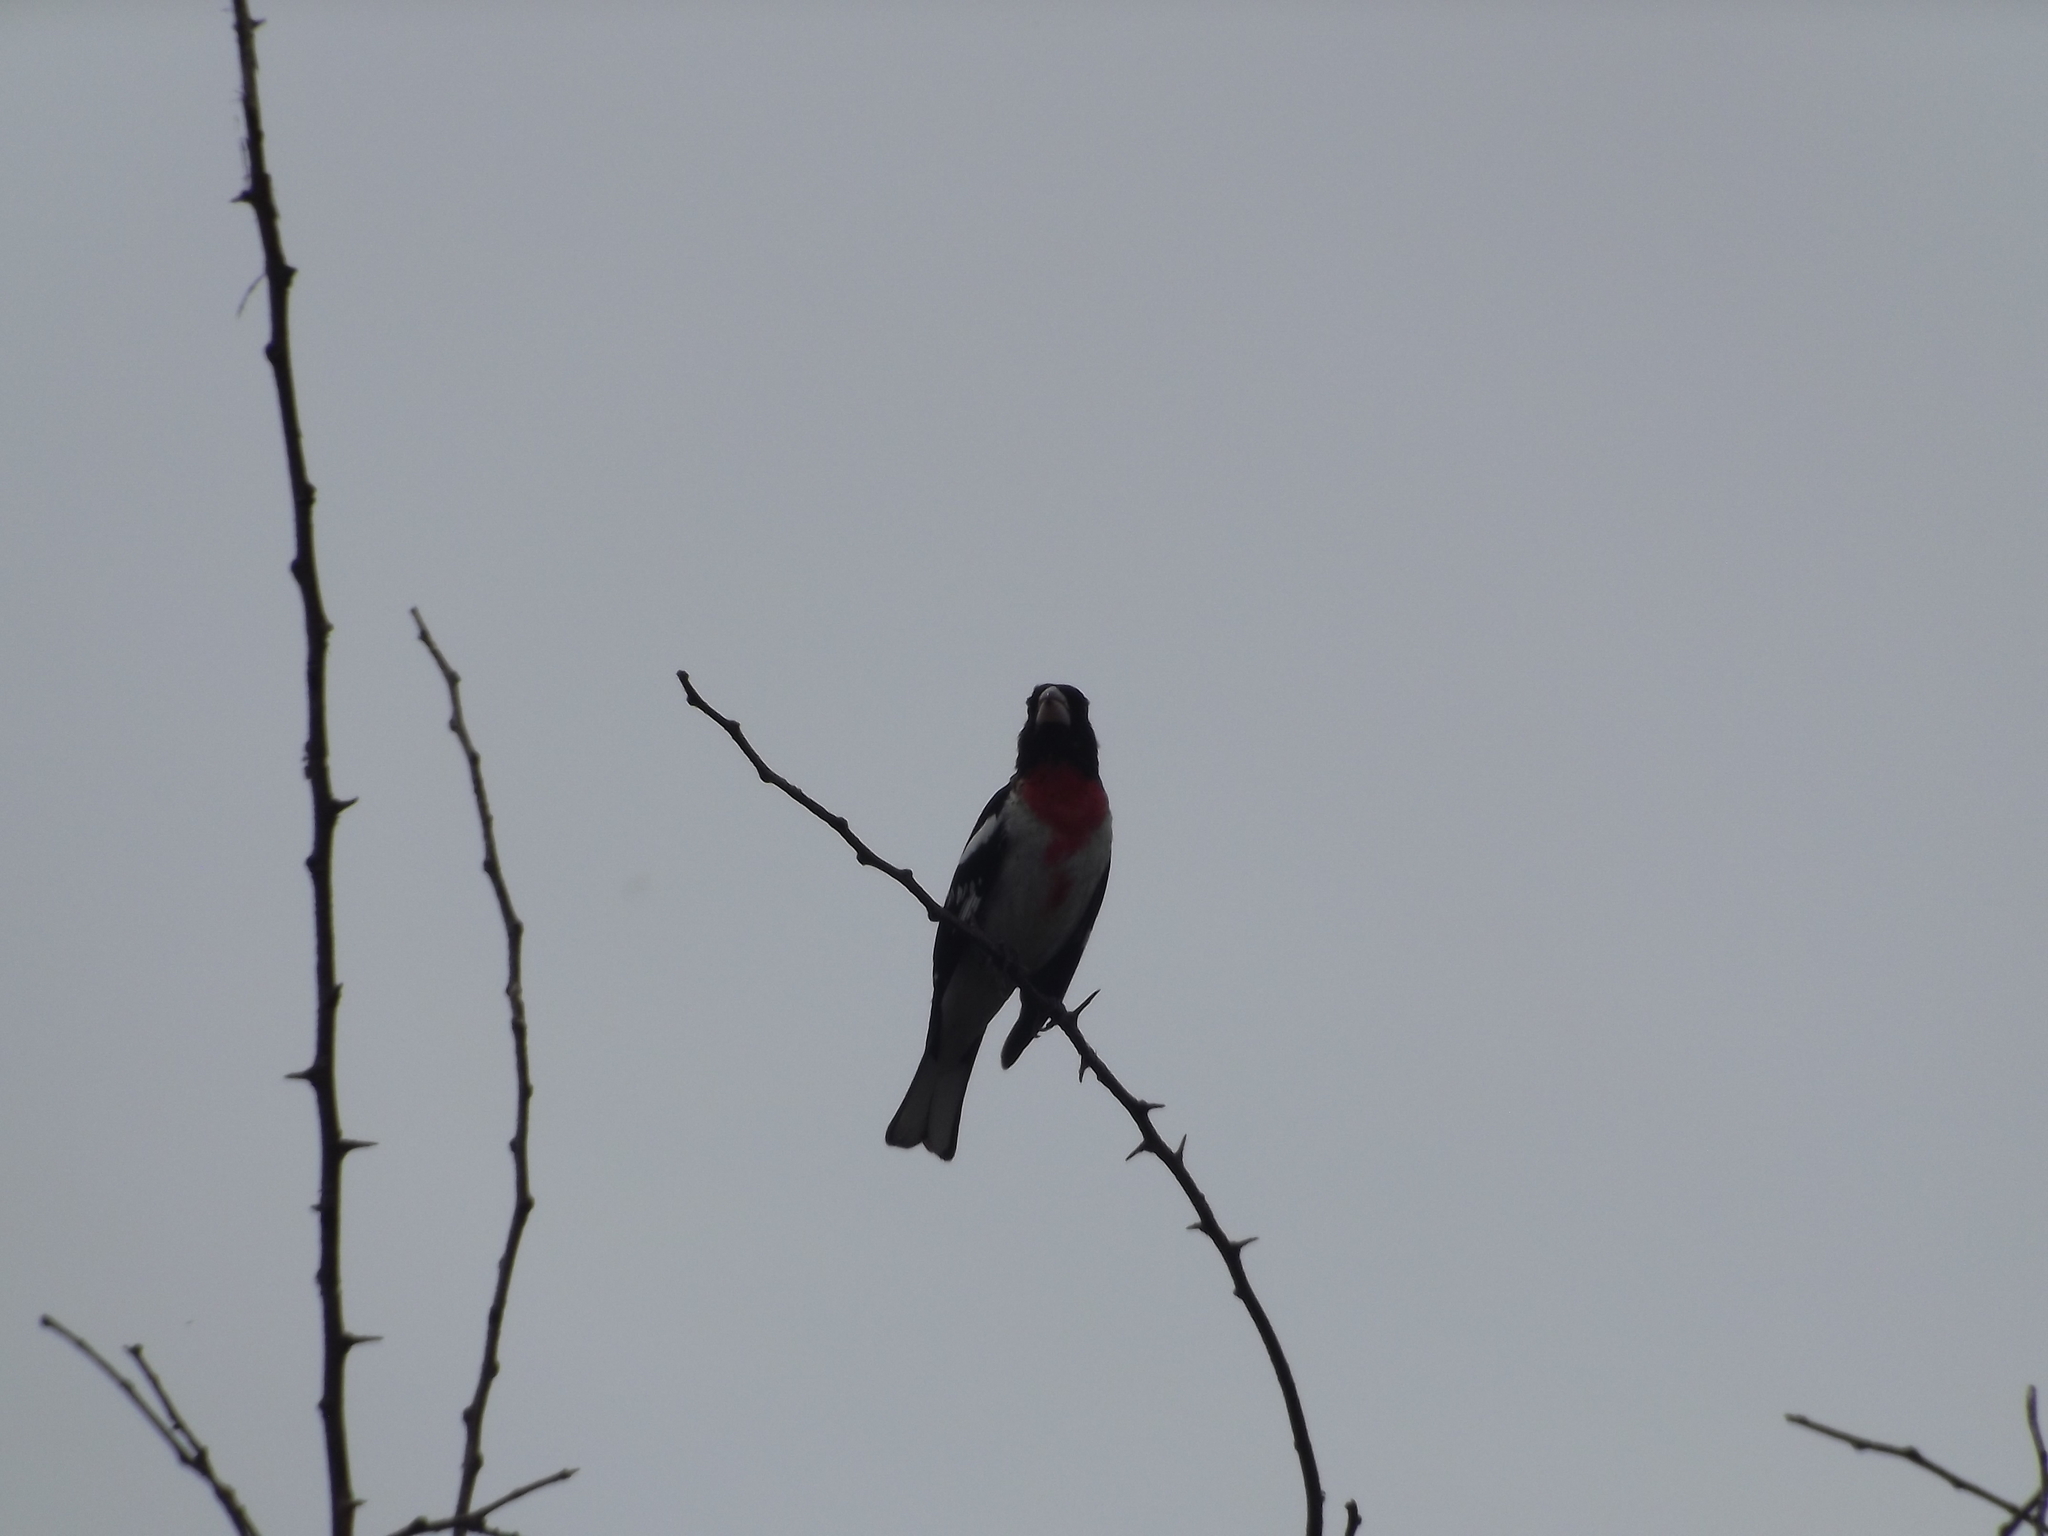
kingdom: Animalia
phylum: Chordata
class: Aves
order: Passeriformes
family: Cardinalidae
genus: Pheucticus
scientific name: Pheucticus ludovicianus
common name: Rose-breasted grosbeak
